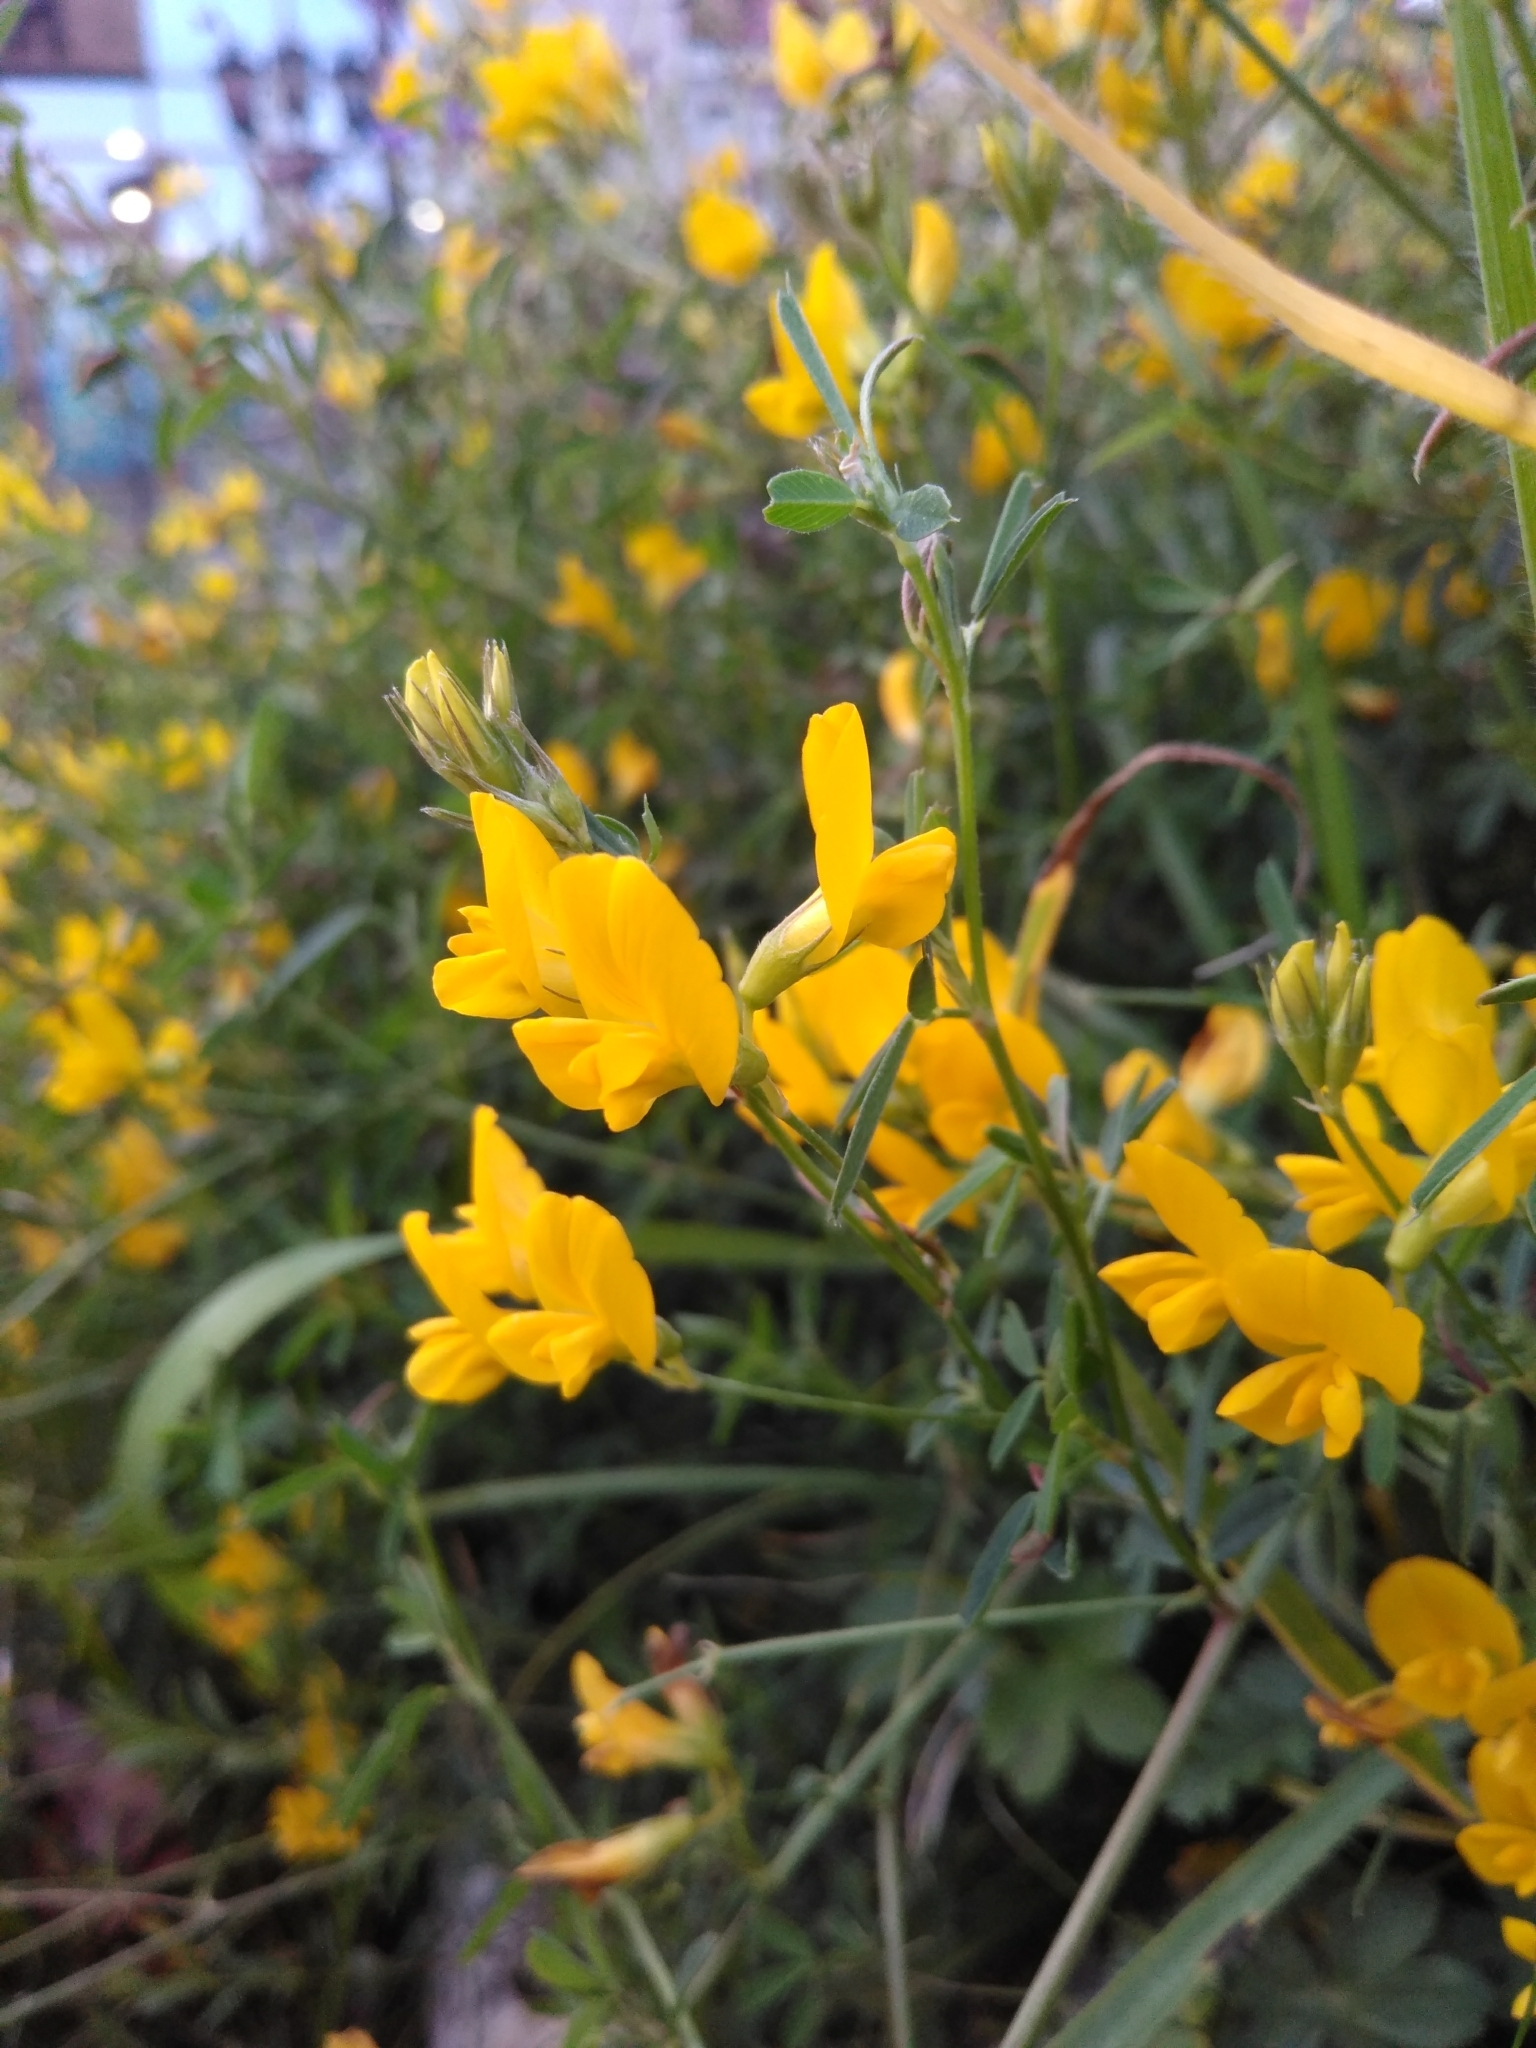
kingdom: Plantae
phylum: Tracheophyta
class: Magnoliopsida
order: Fabales
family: Fabaceae
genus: Medicago
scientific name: Medicago falcata
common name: Sickle medick
